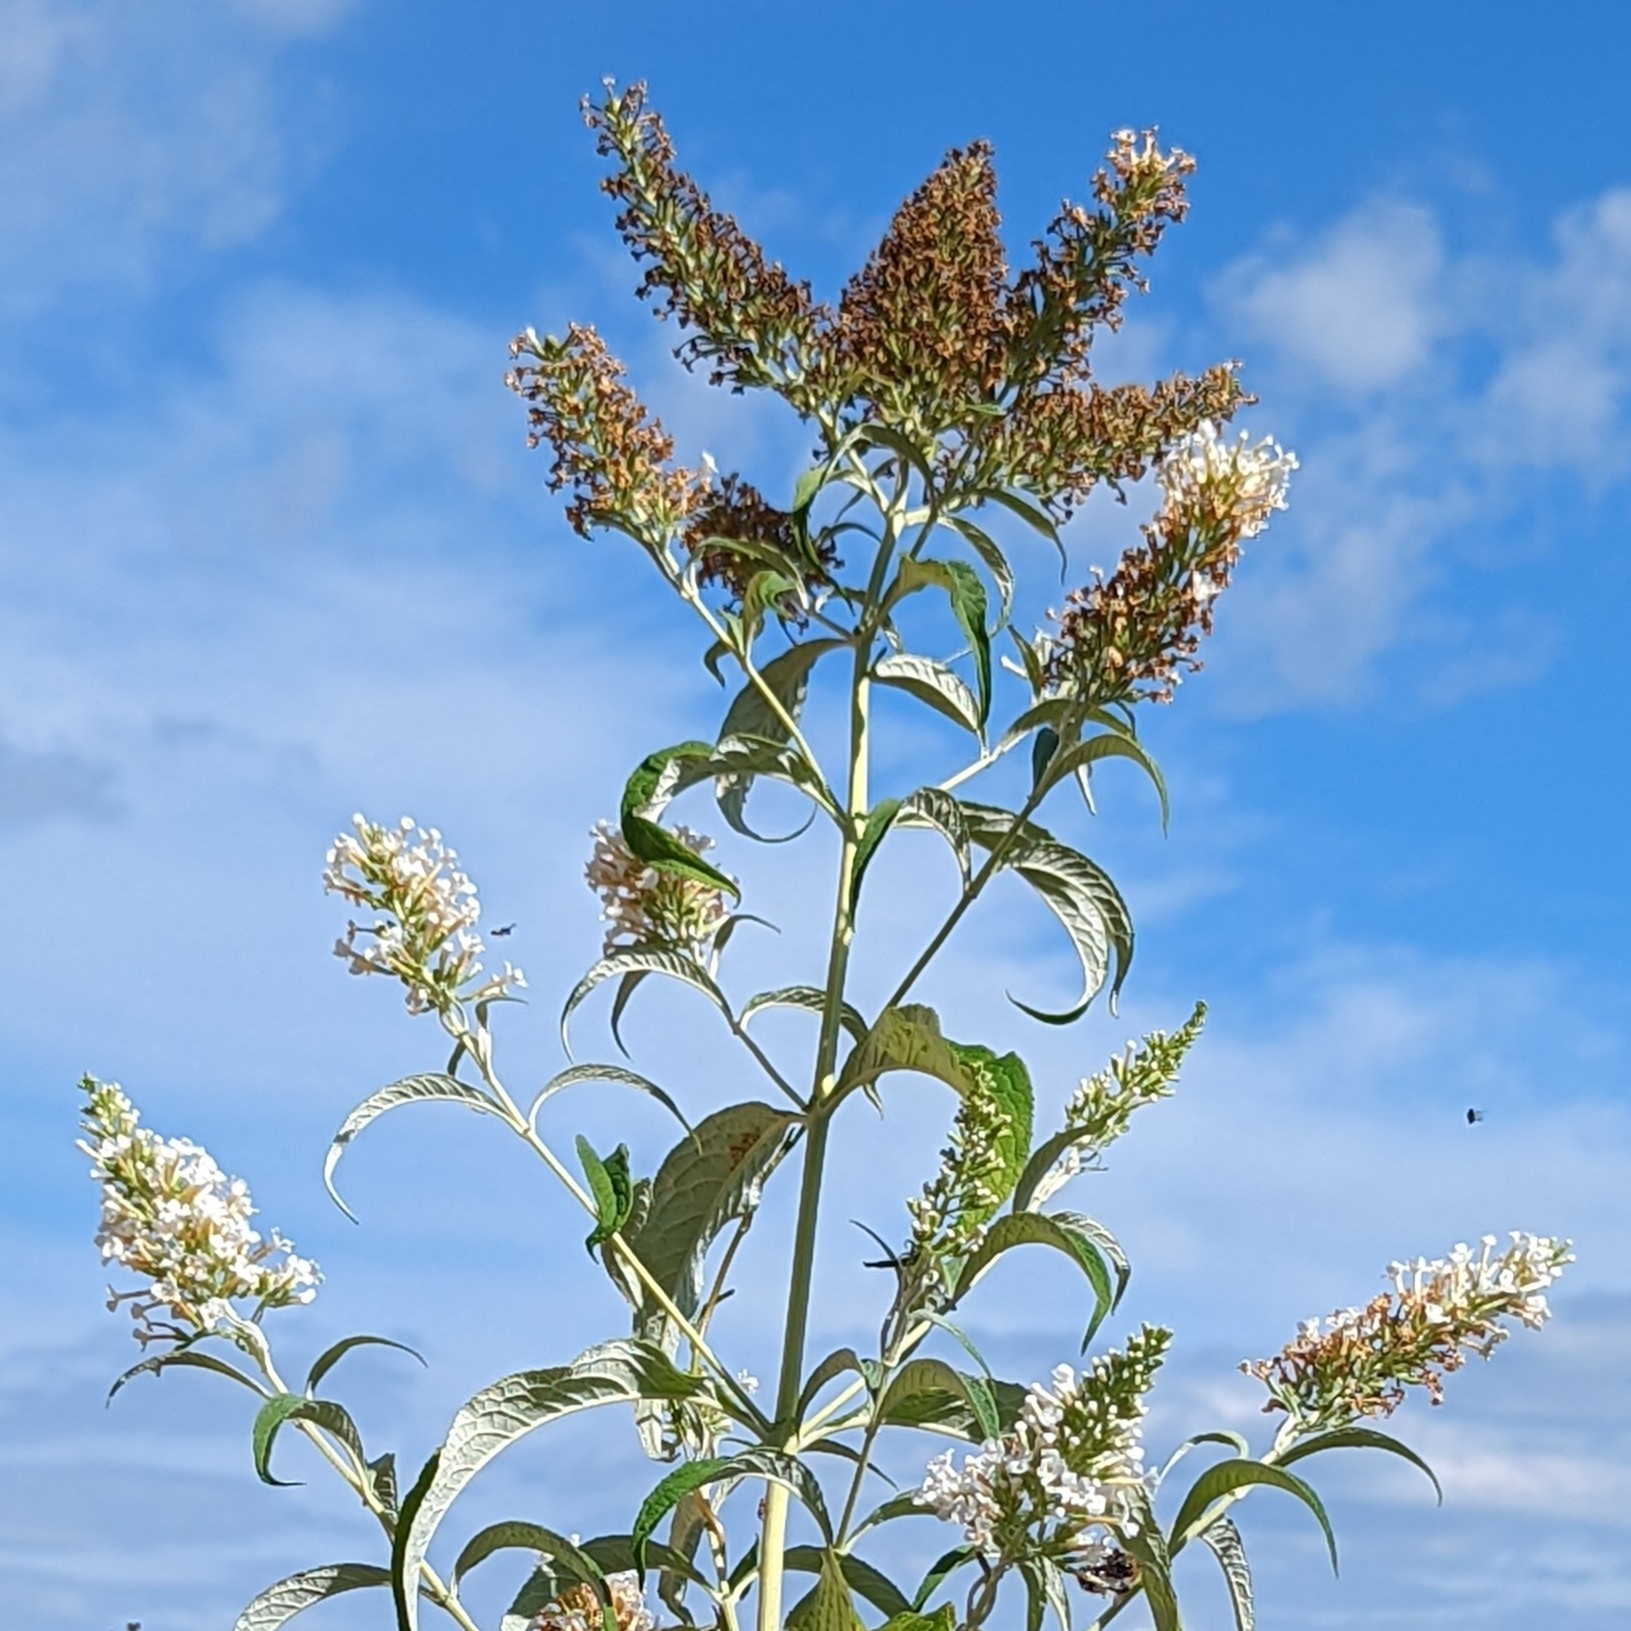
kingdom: Plantae
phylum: Tracheophyta
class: Magnoliopsida
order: Lamiales
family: Scrophulariaceae
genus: Buddleja
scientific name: Buddleja davidii
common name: Butterfly-bush
